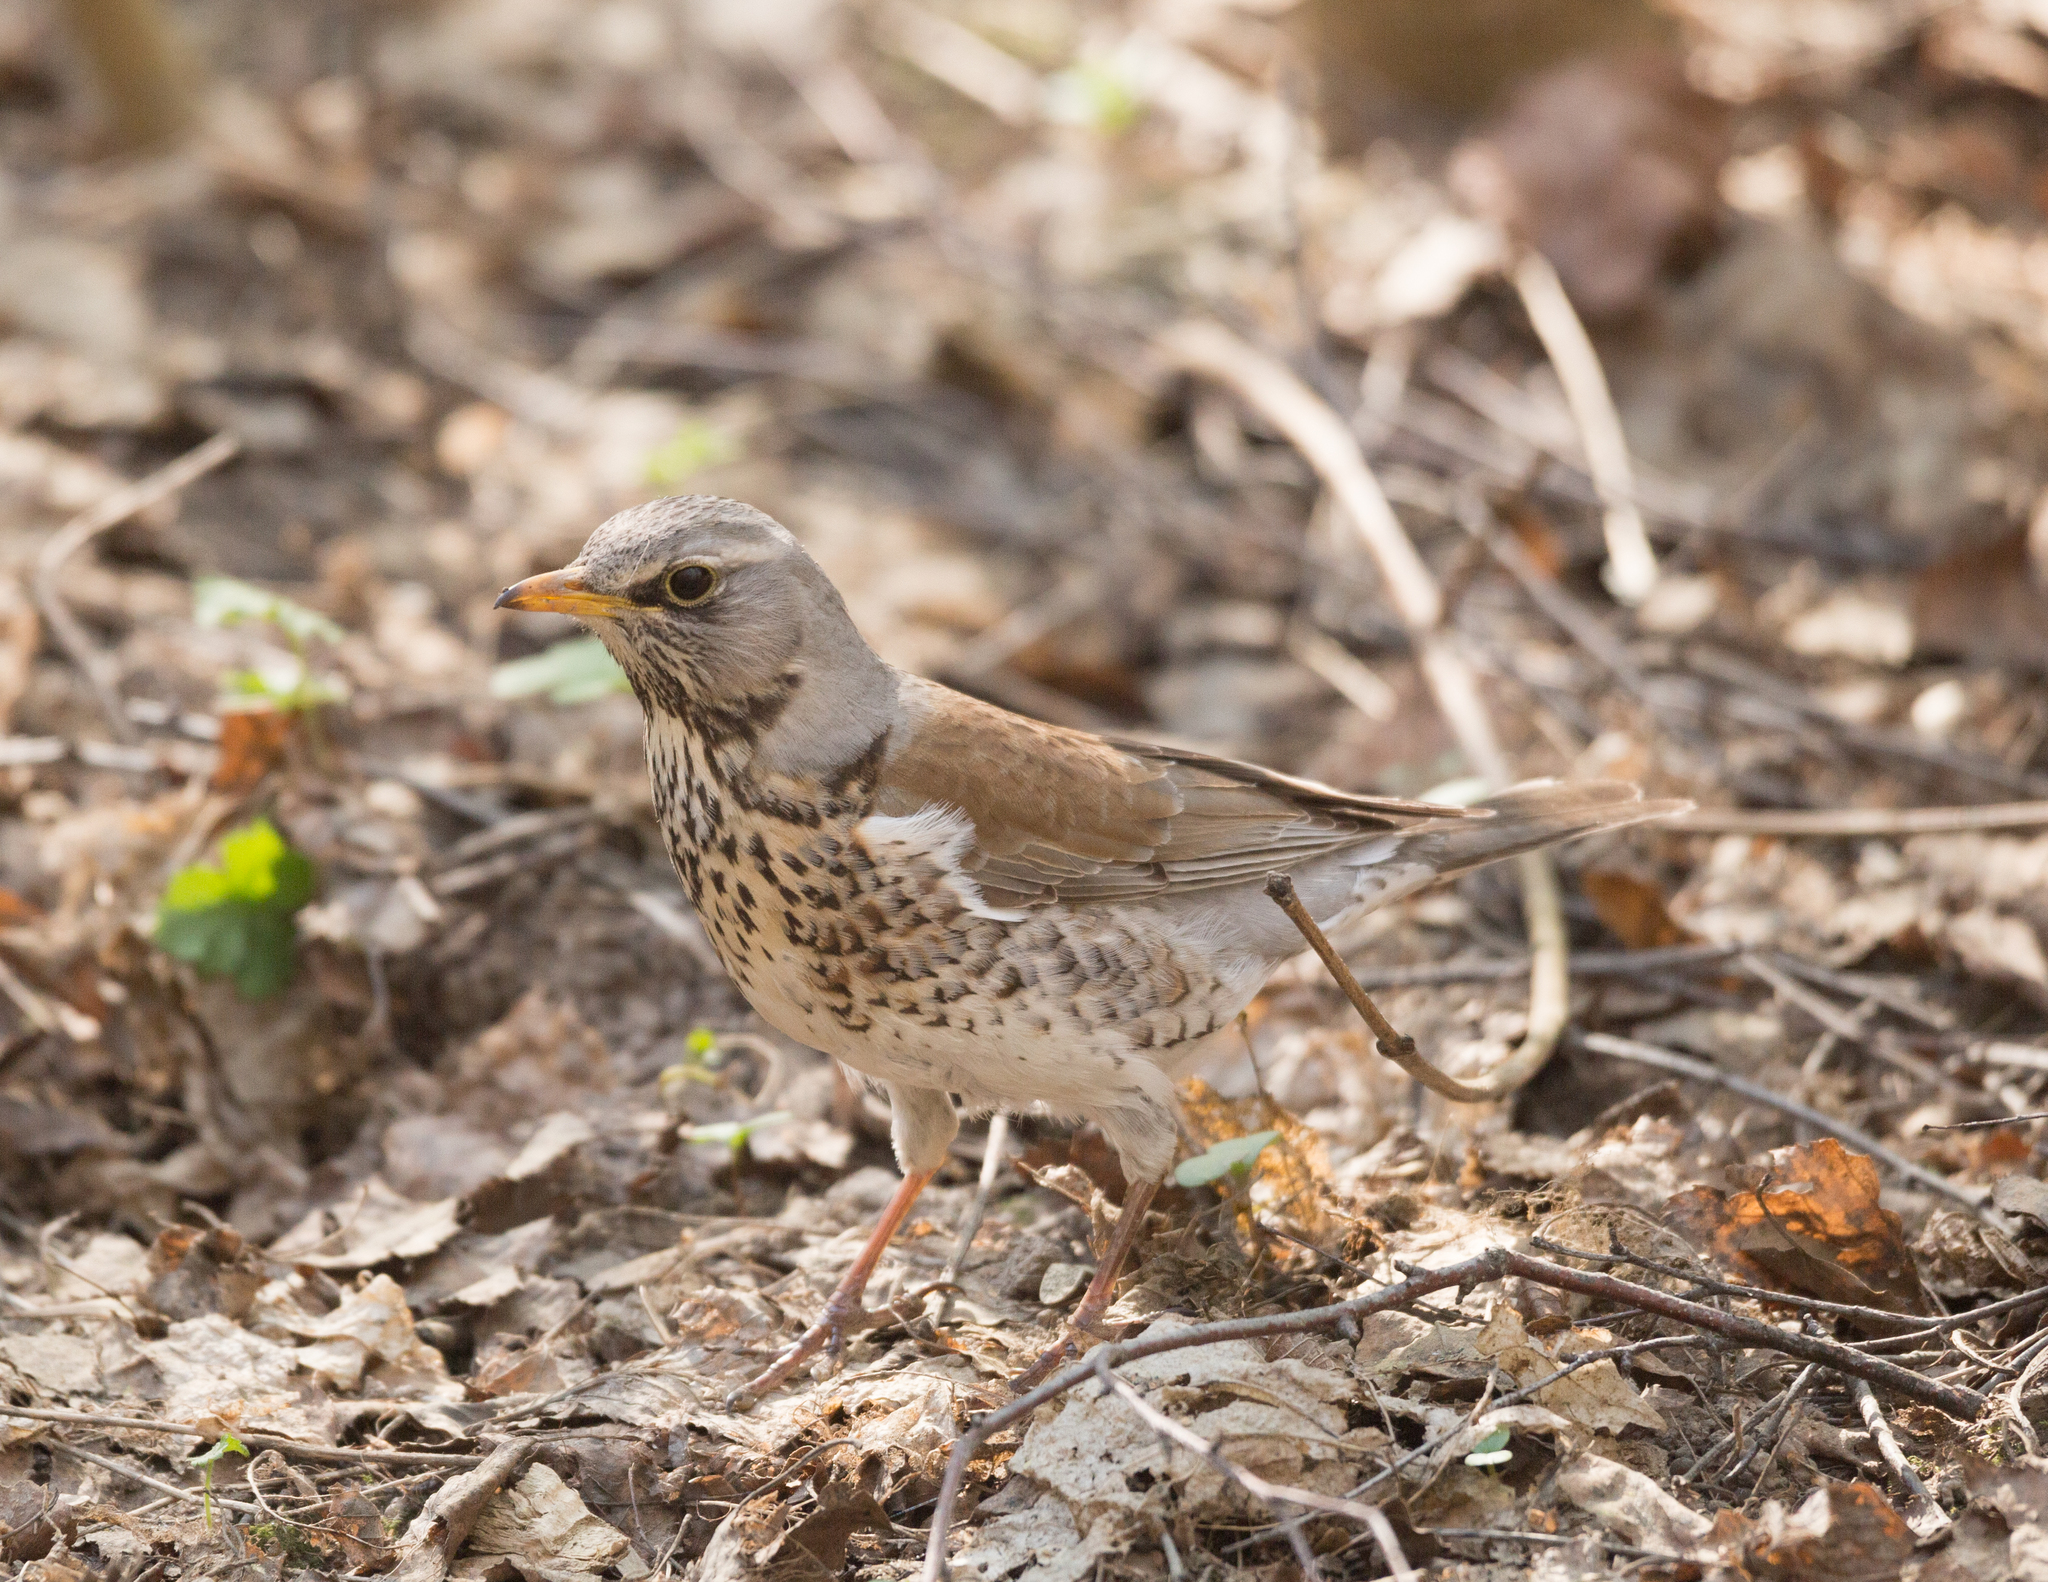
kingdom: Animalia
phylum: Chordata
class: Aves
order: Passeriformes
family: Turdidae
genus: Turdus
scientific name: Turdus pilaris
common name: Fieldfare
